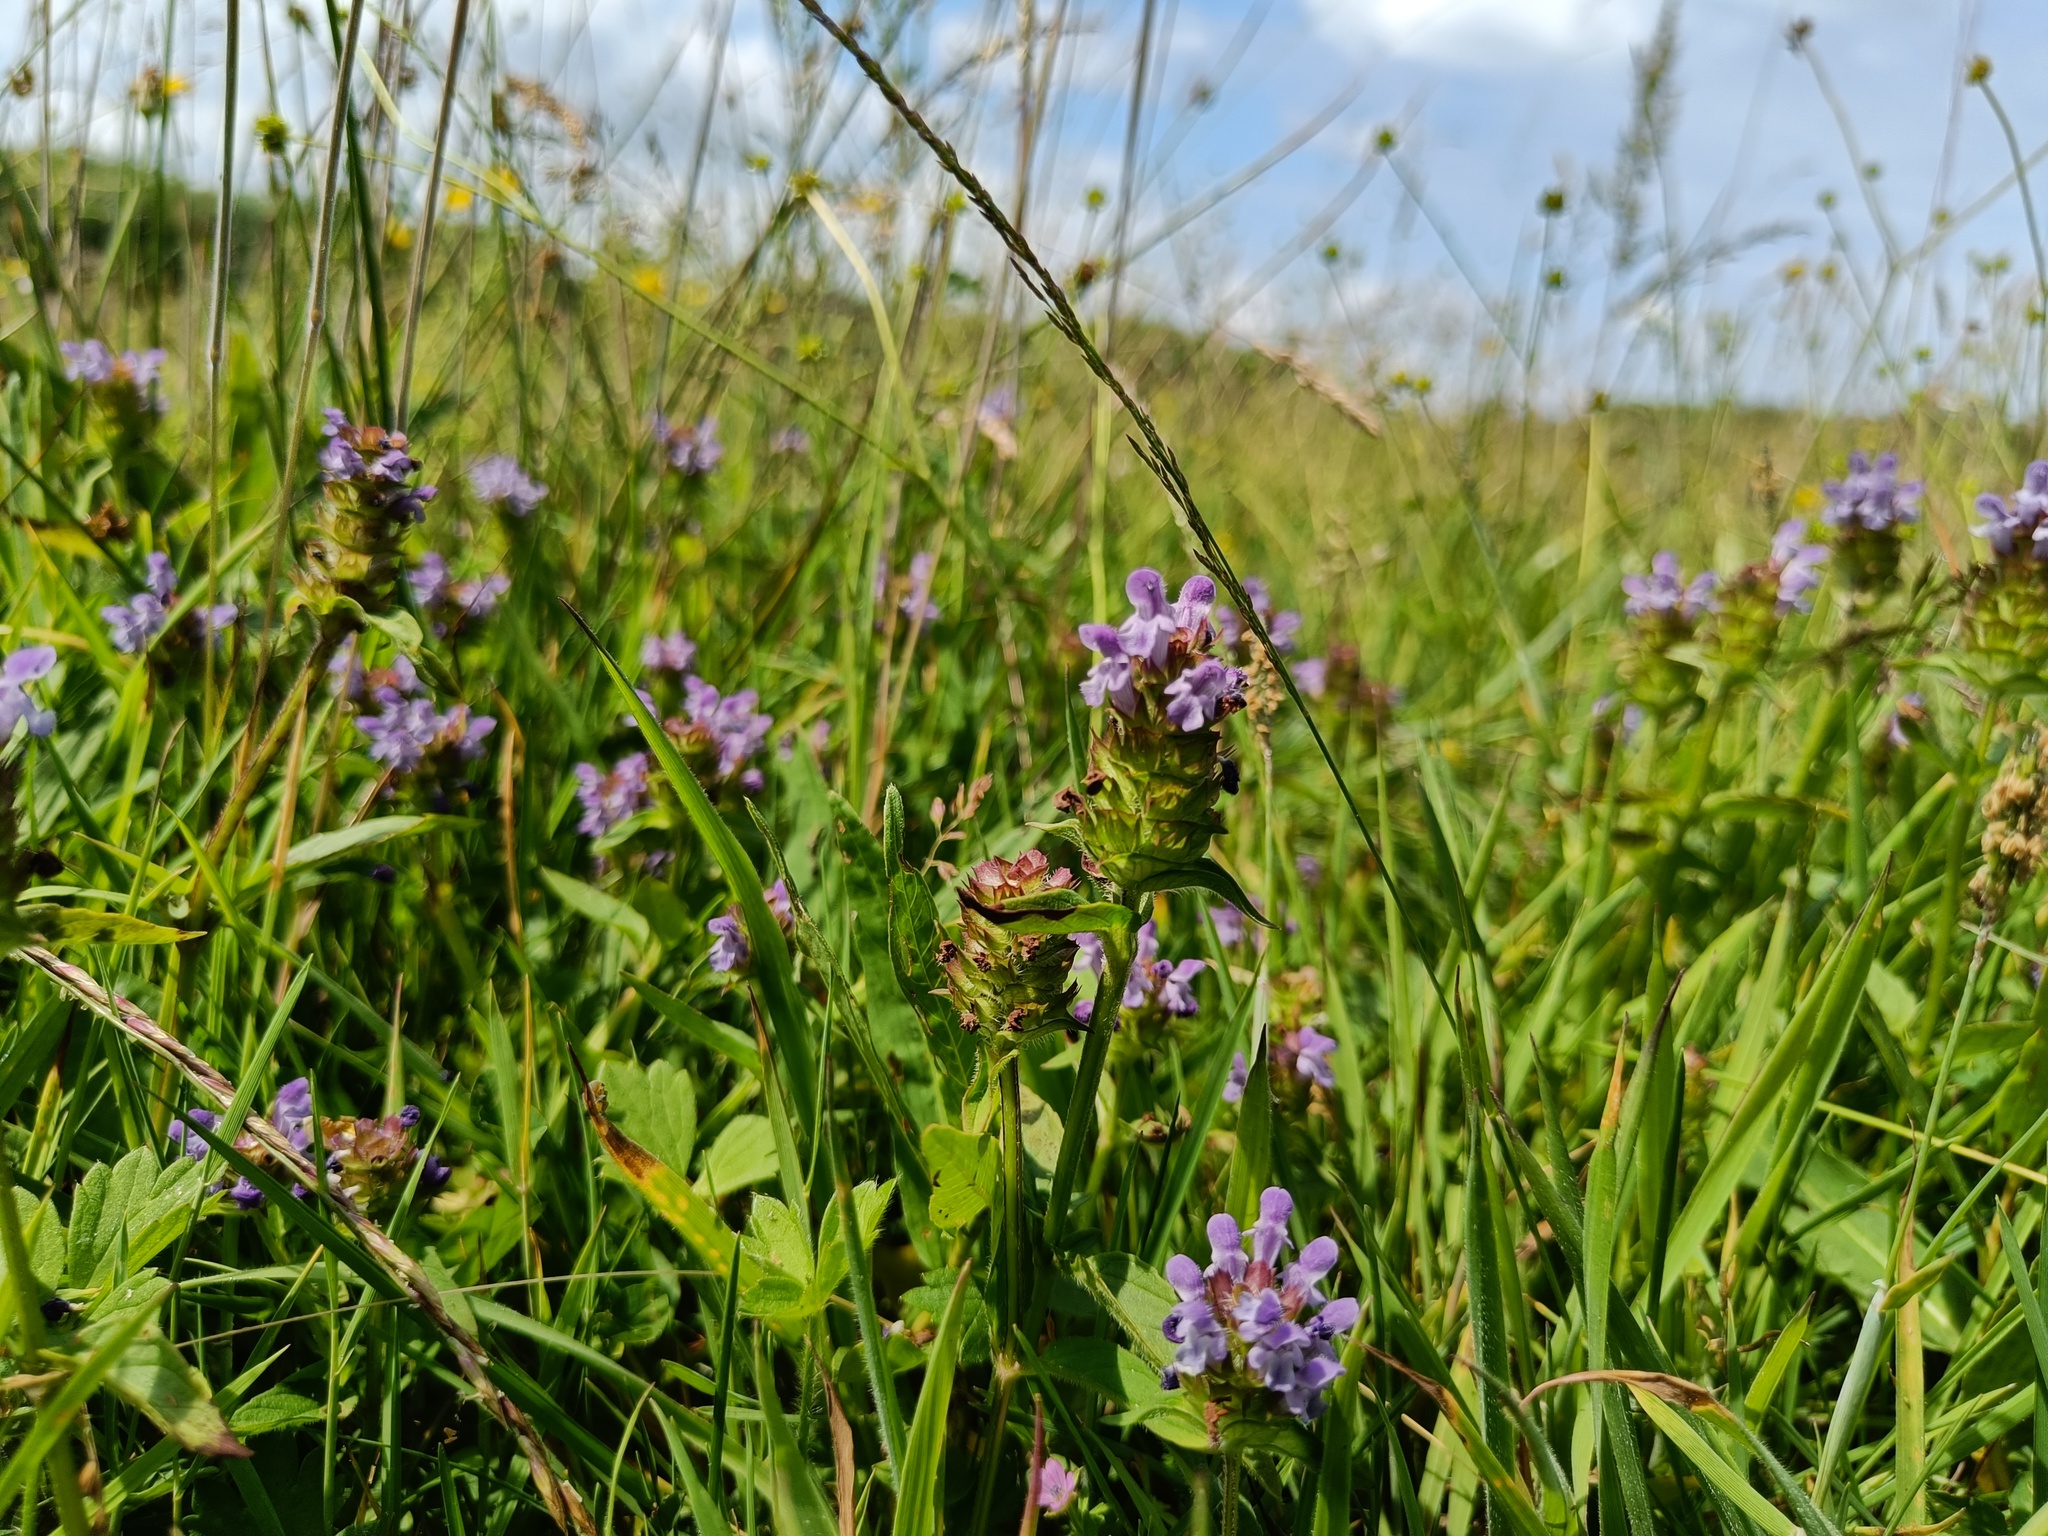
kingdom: Plantae
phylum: Tracheophyta
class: Magnoliopsida
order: Lamiales
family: Lamiaceae
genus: Prunella
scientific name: Prunella vulgaris
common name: Heal-all
